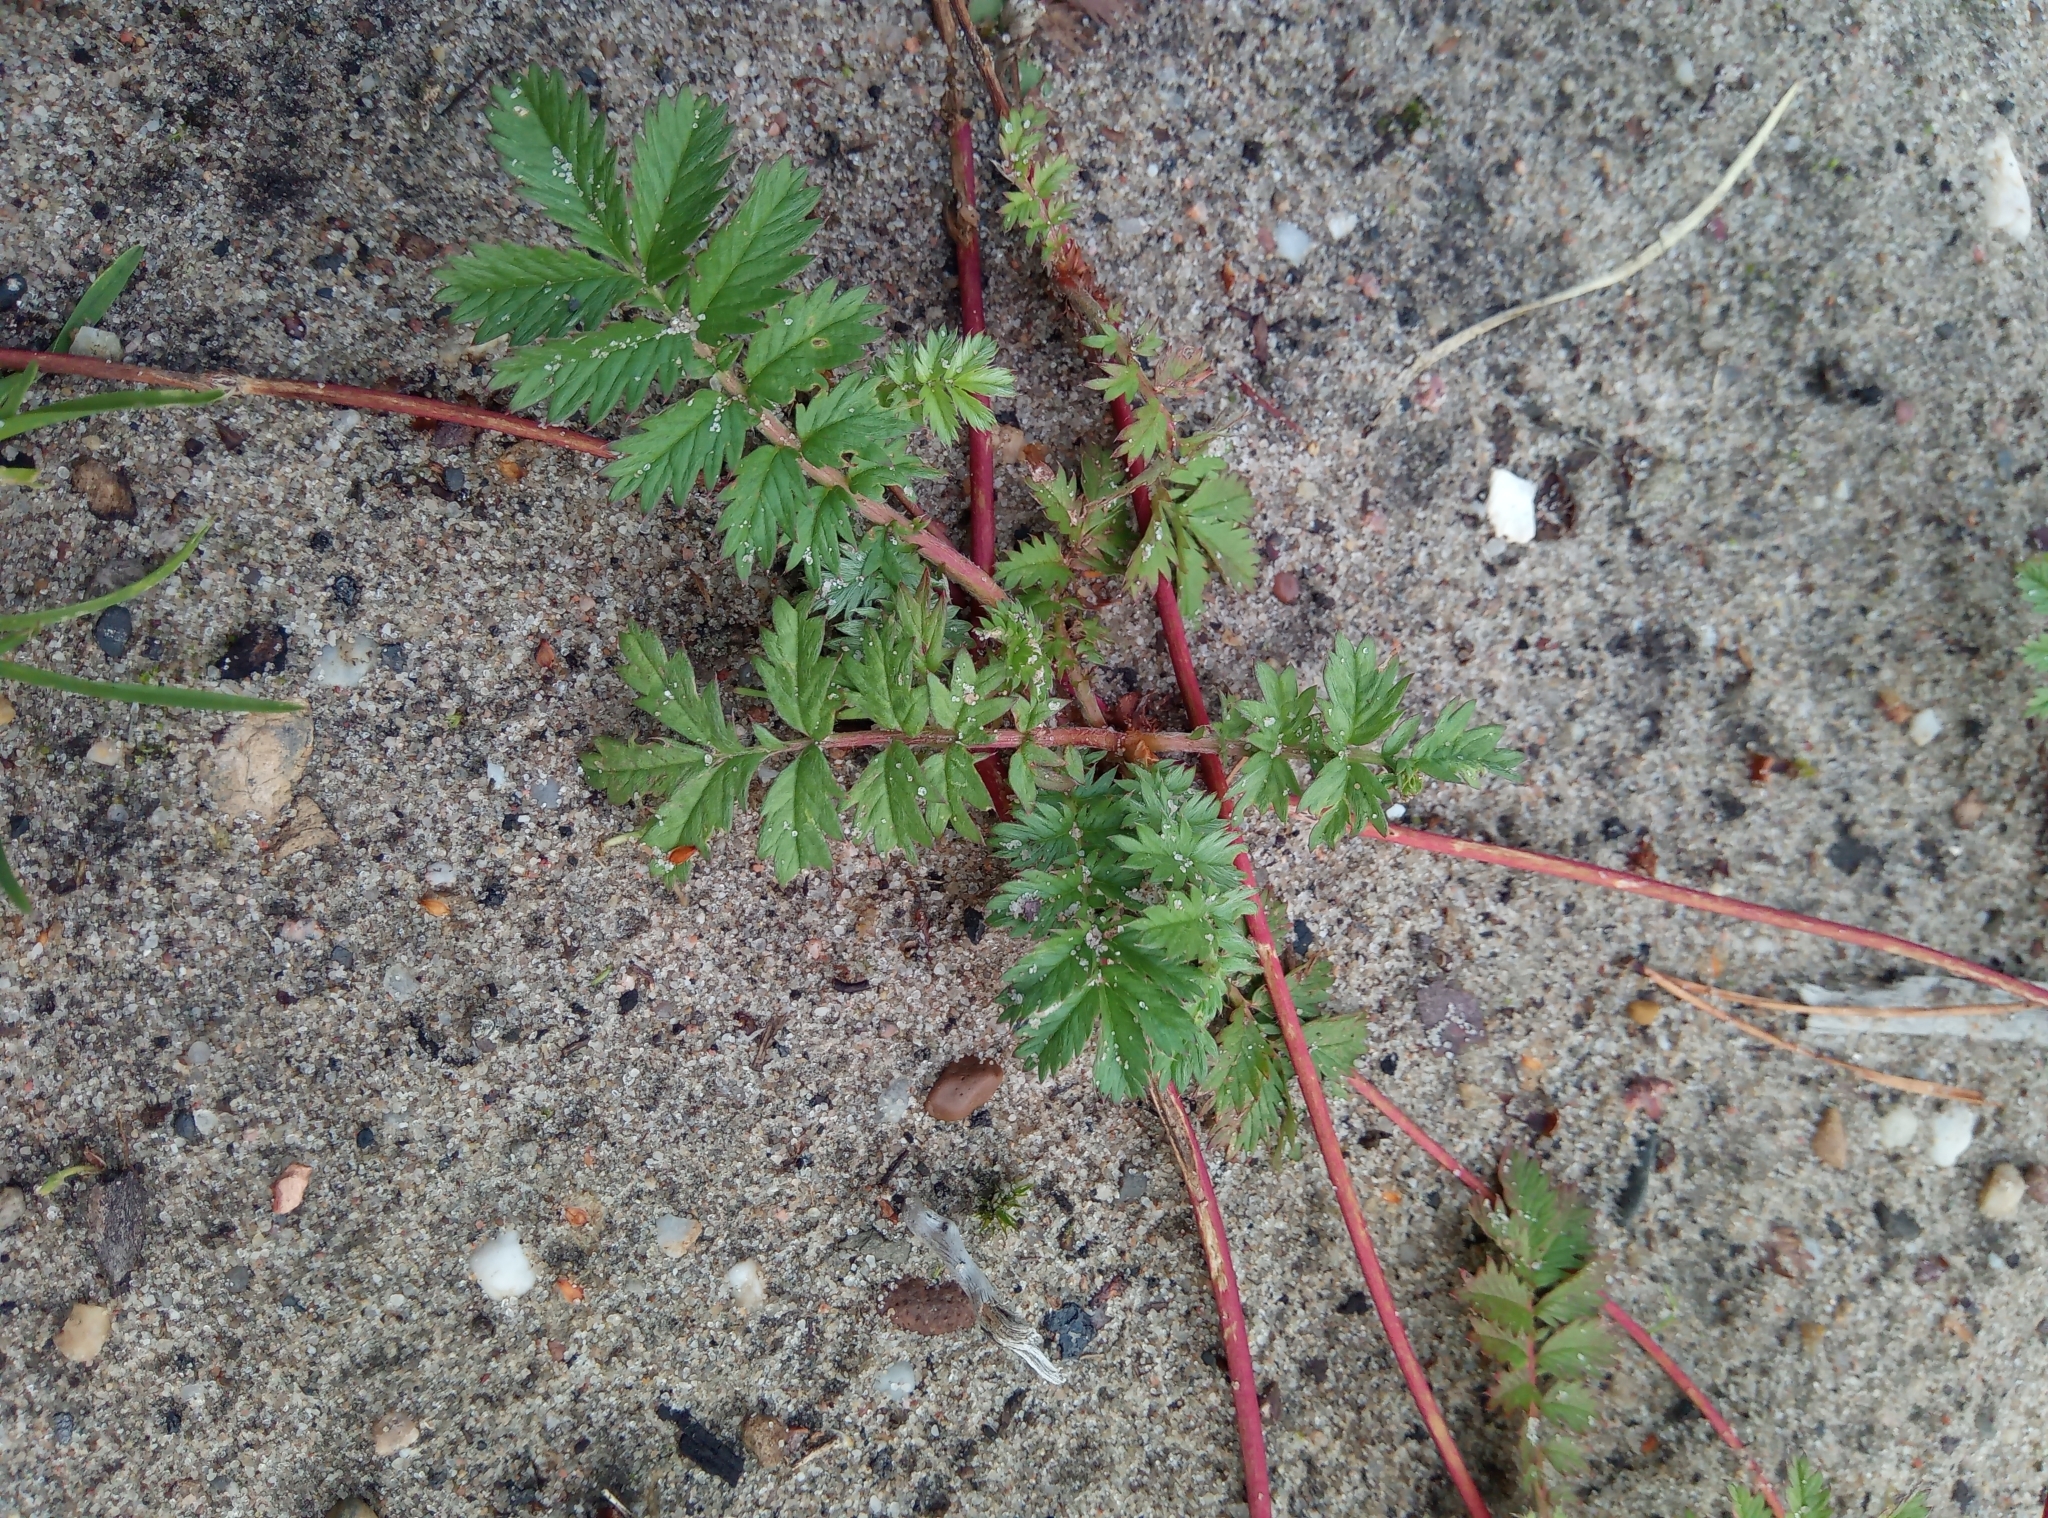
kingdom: Plantae
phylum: Tracheophyta
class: Magnoliopsida
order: Rosales
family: Rosaceae
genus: Argentina
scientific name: Argentina anserina
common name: Common silverweed
